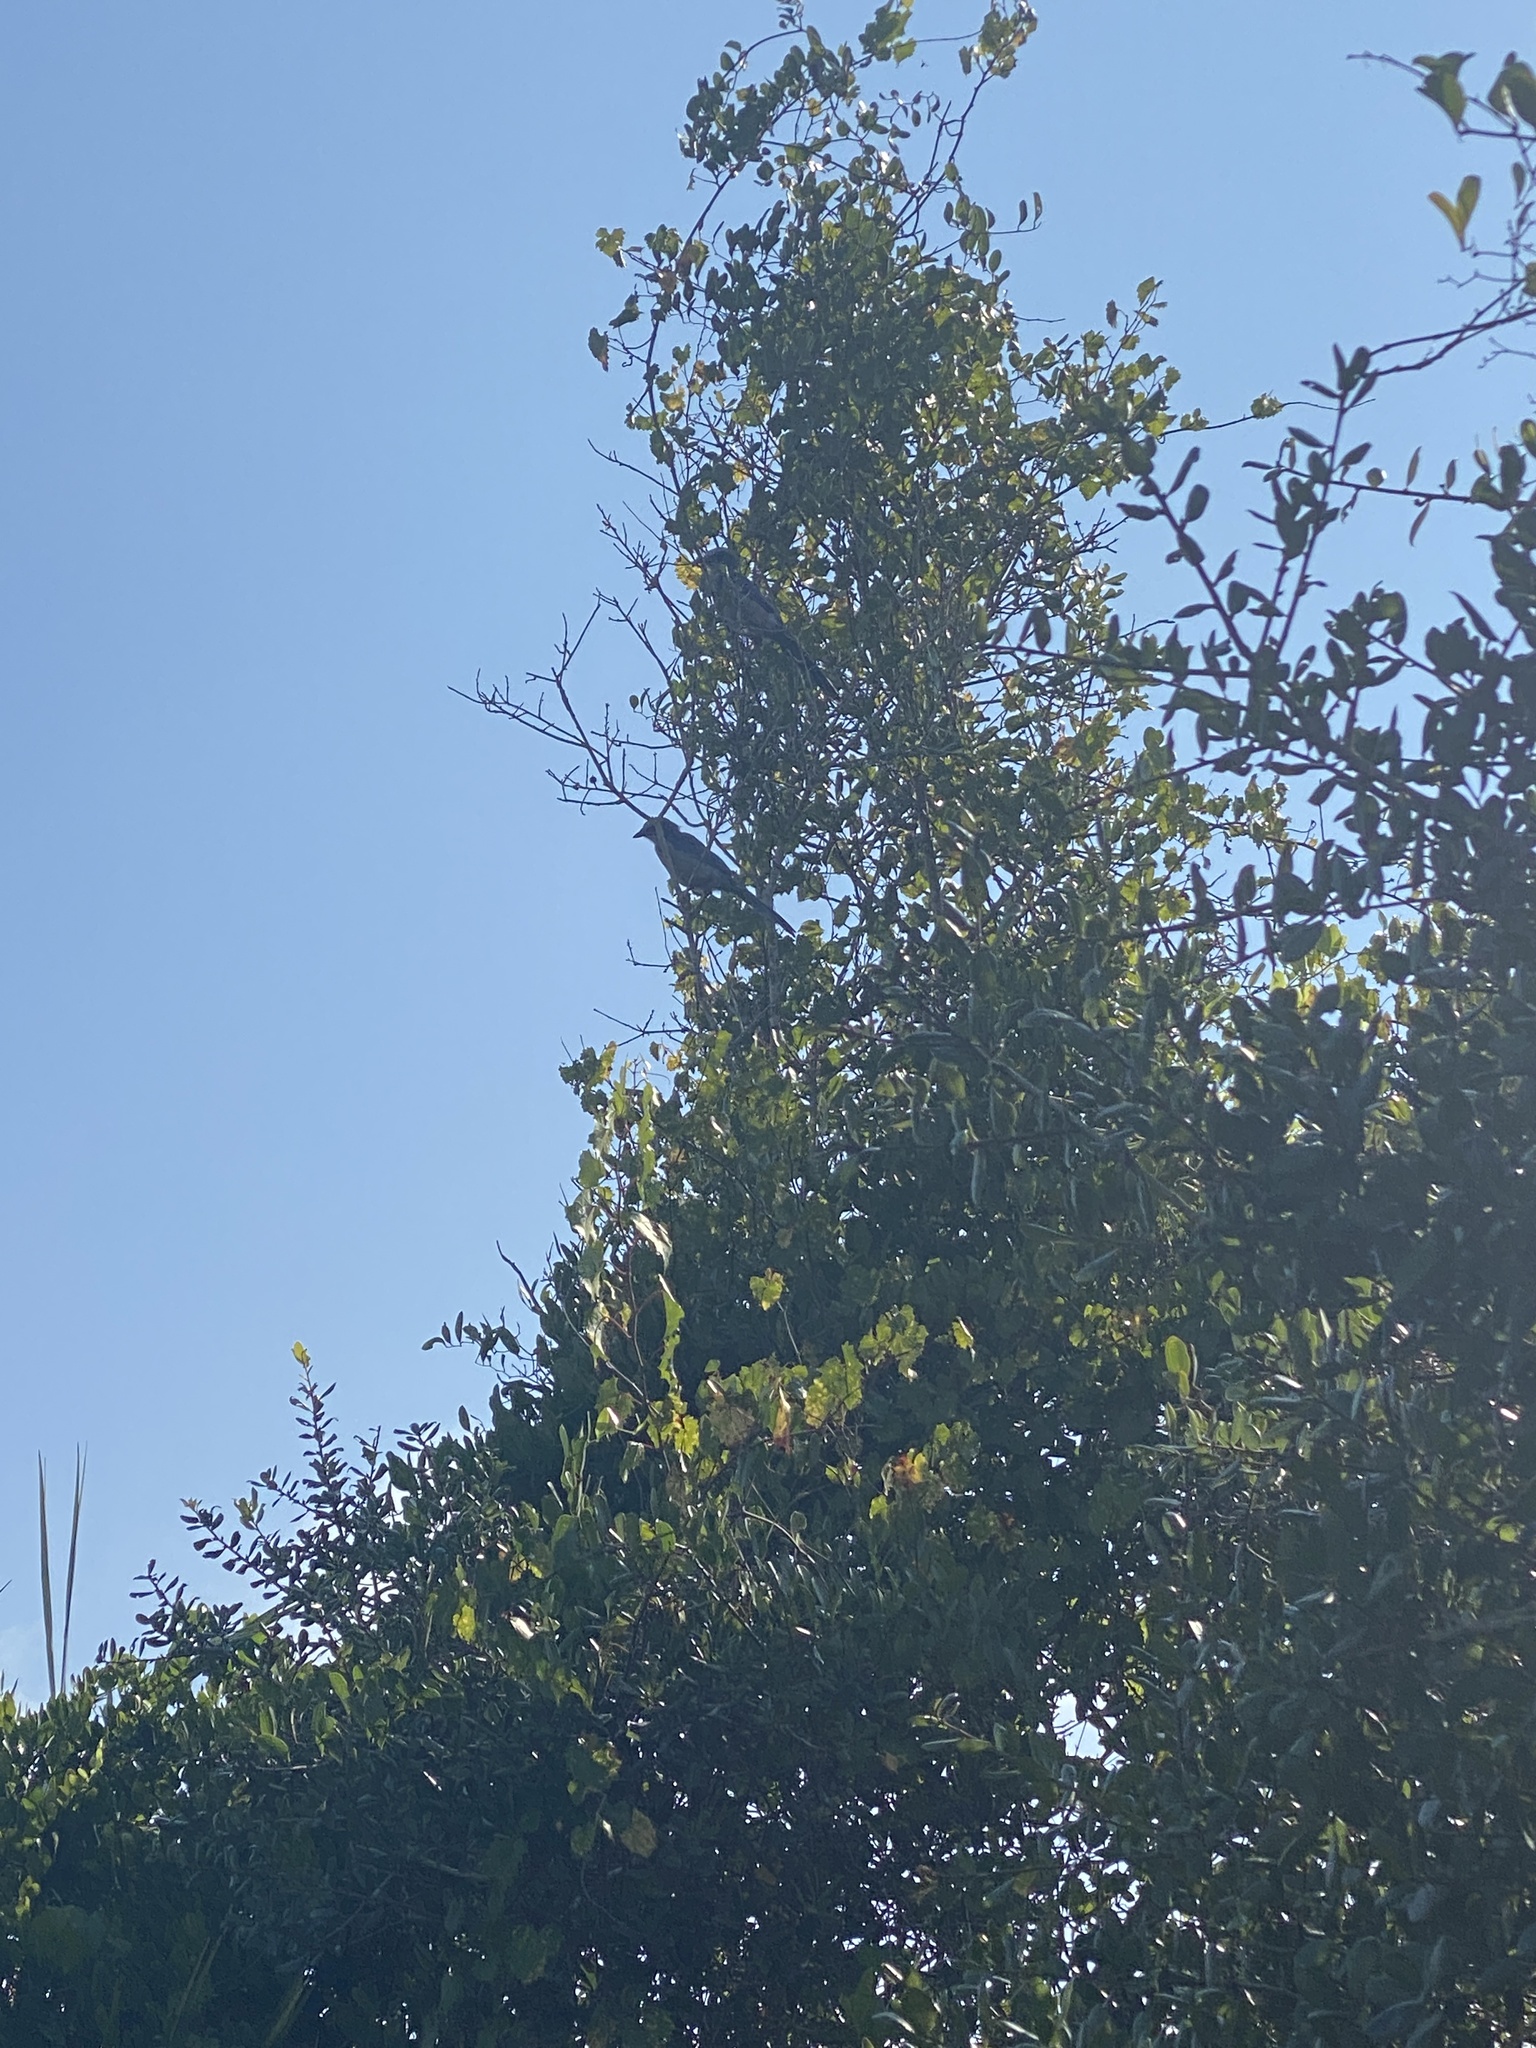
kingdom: Animalia
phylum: Chordata
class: Aves
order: Passeriformes
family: Corvidae
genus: Aphelocoma
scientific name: Aphelocoma coerulescens
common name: Florida scrub jay
